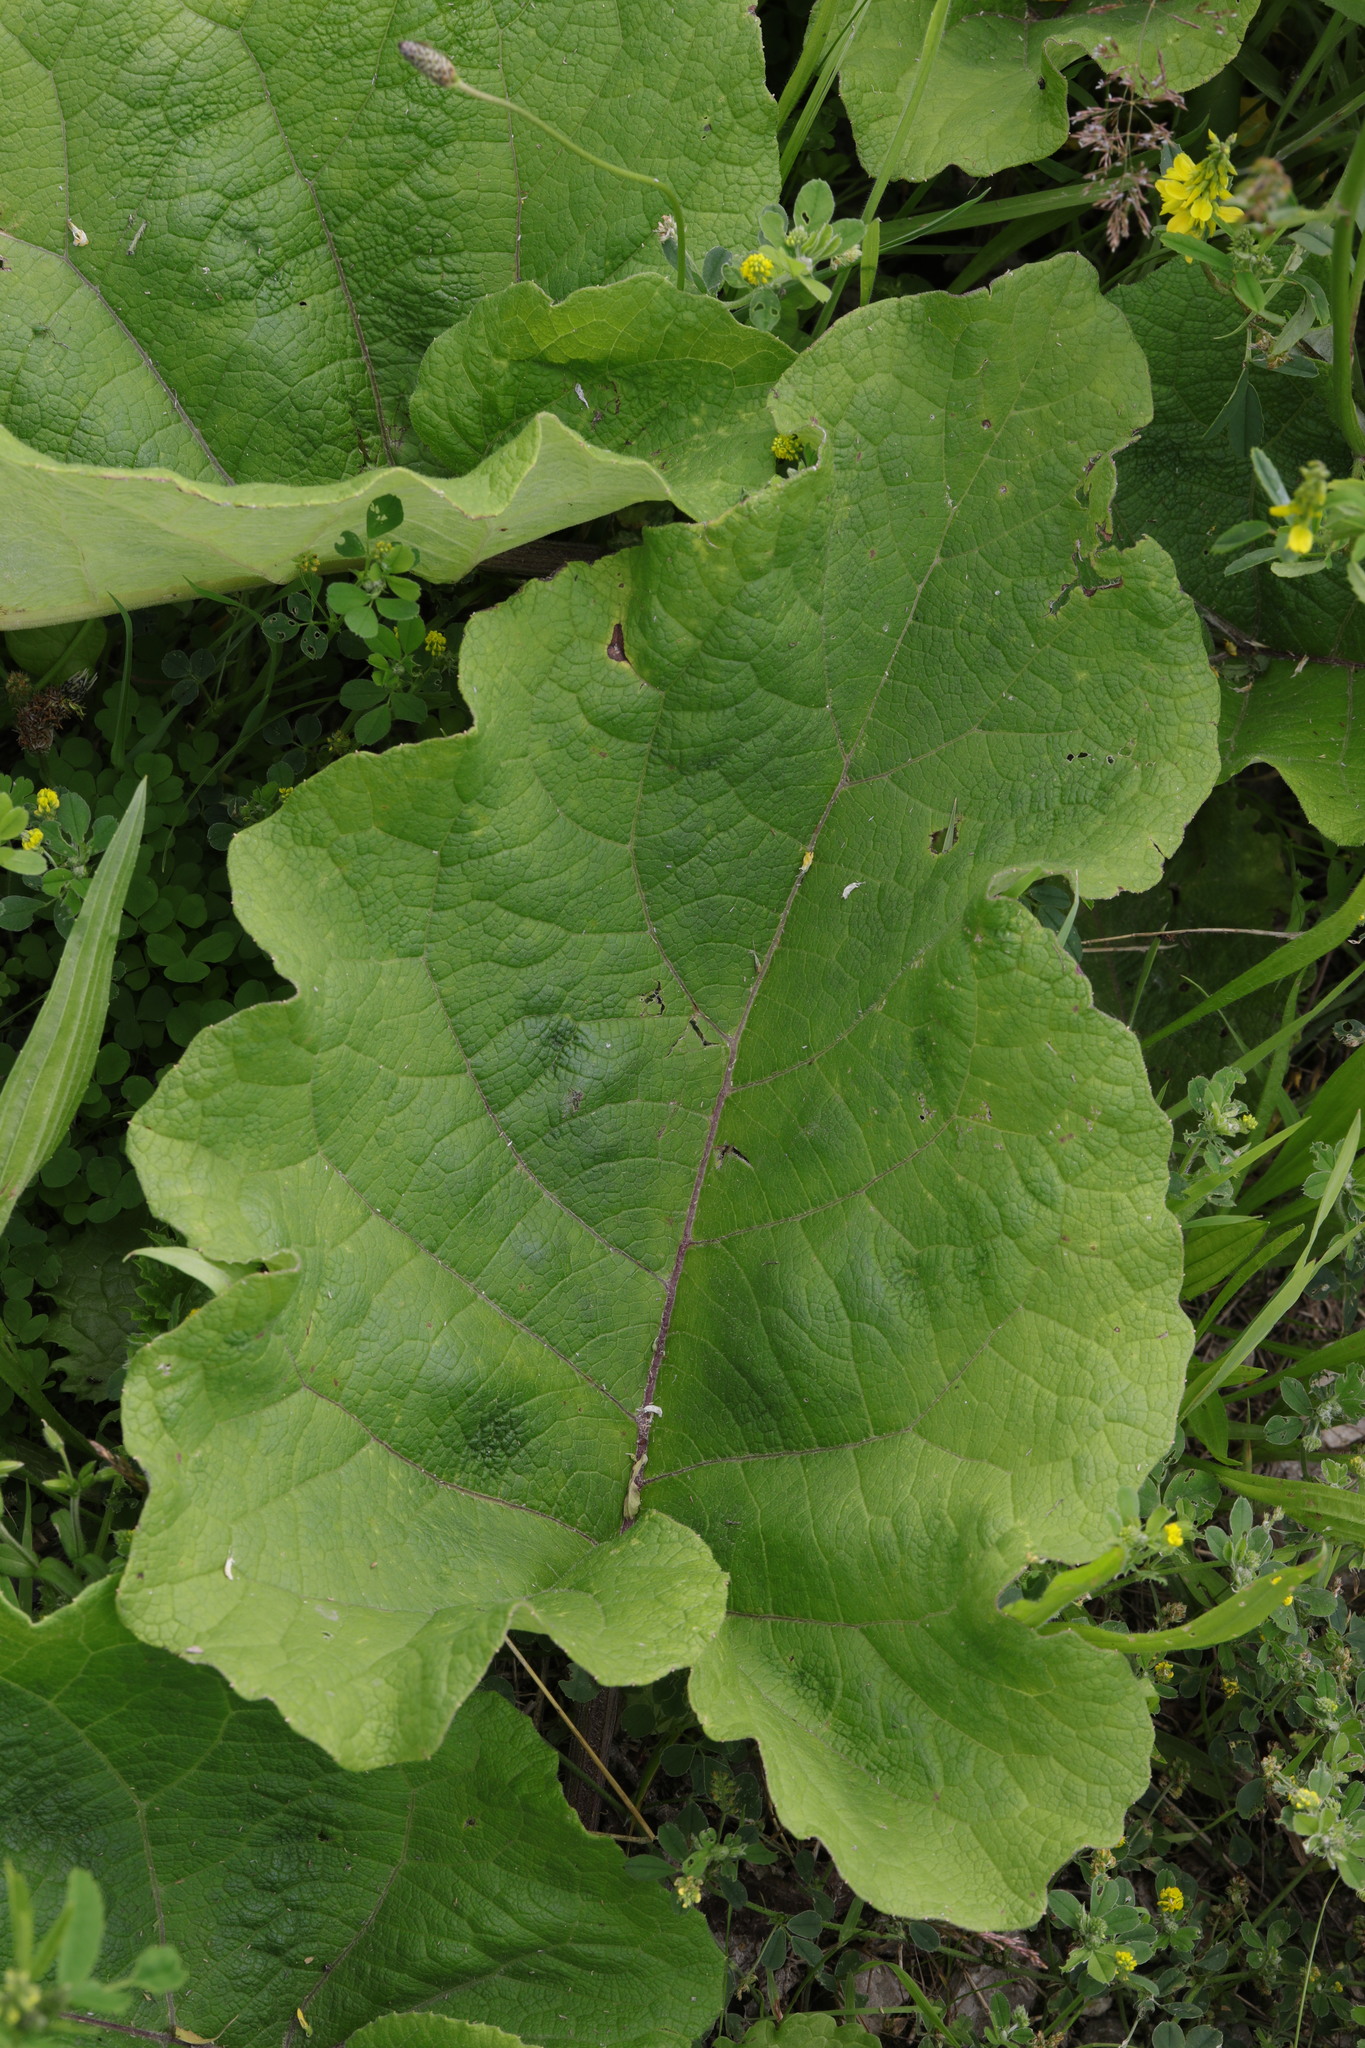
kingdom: Plantae
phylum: Tracheophyta
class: Magnoliopsida
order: Asterales
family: Asteraceae
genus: Arctium
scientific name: Arctium minus
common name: Lesser burdock
